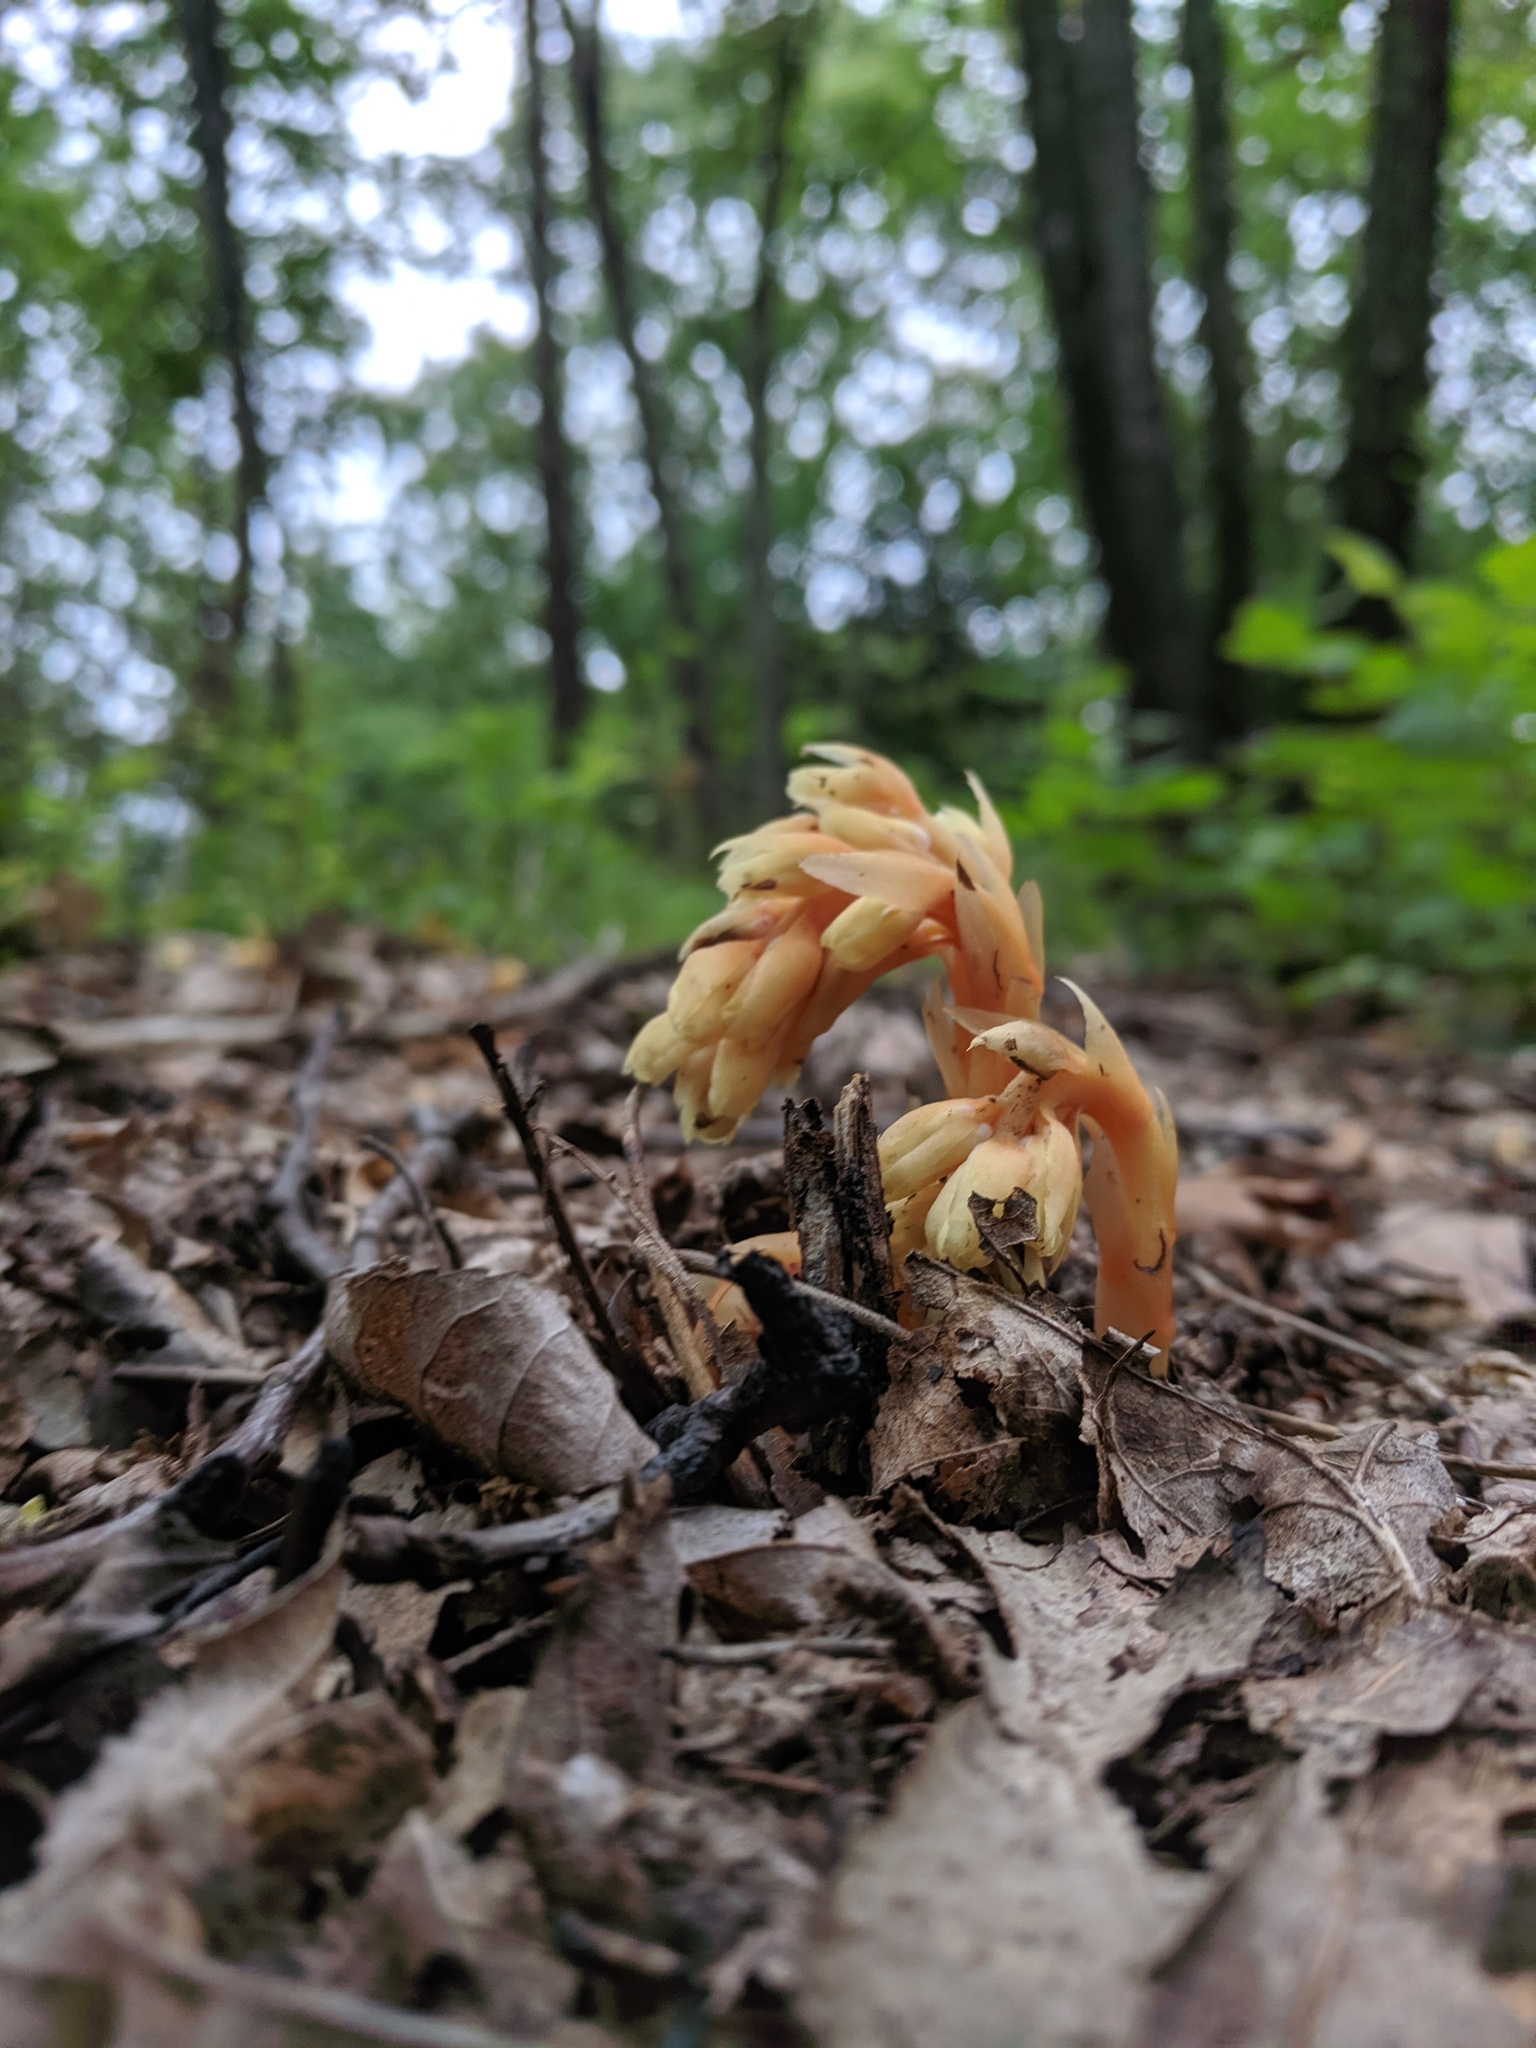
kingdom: Plantae
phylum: Tracheophyta
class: Magnoliopsida
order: Ericales
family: Ericaceae
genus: Hypopitys
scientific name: Hypopitys monotropa
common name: Yellow bird's-nest
